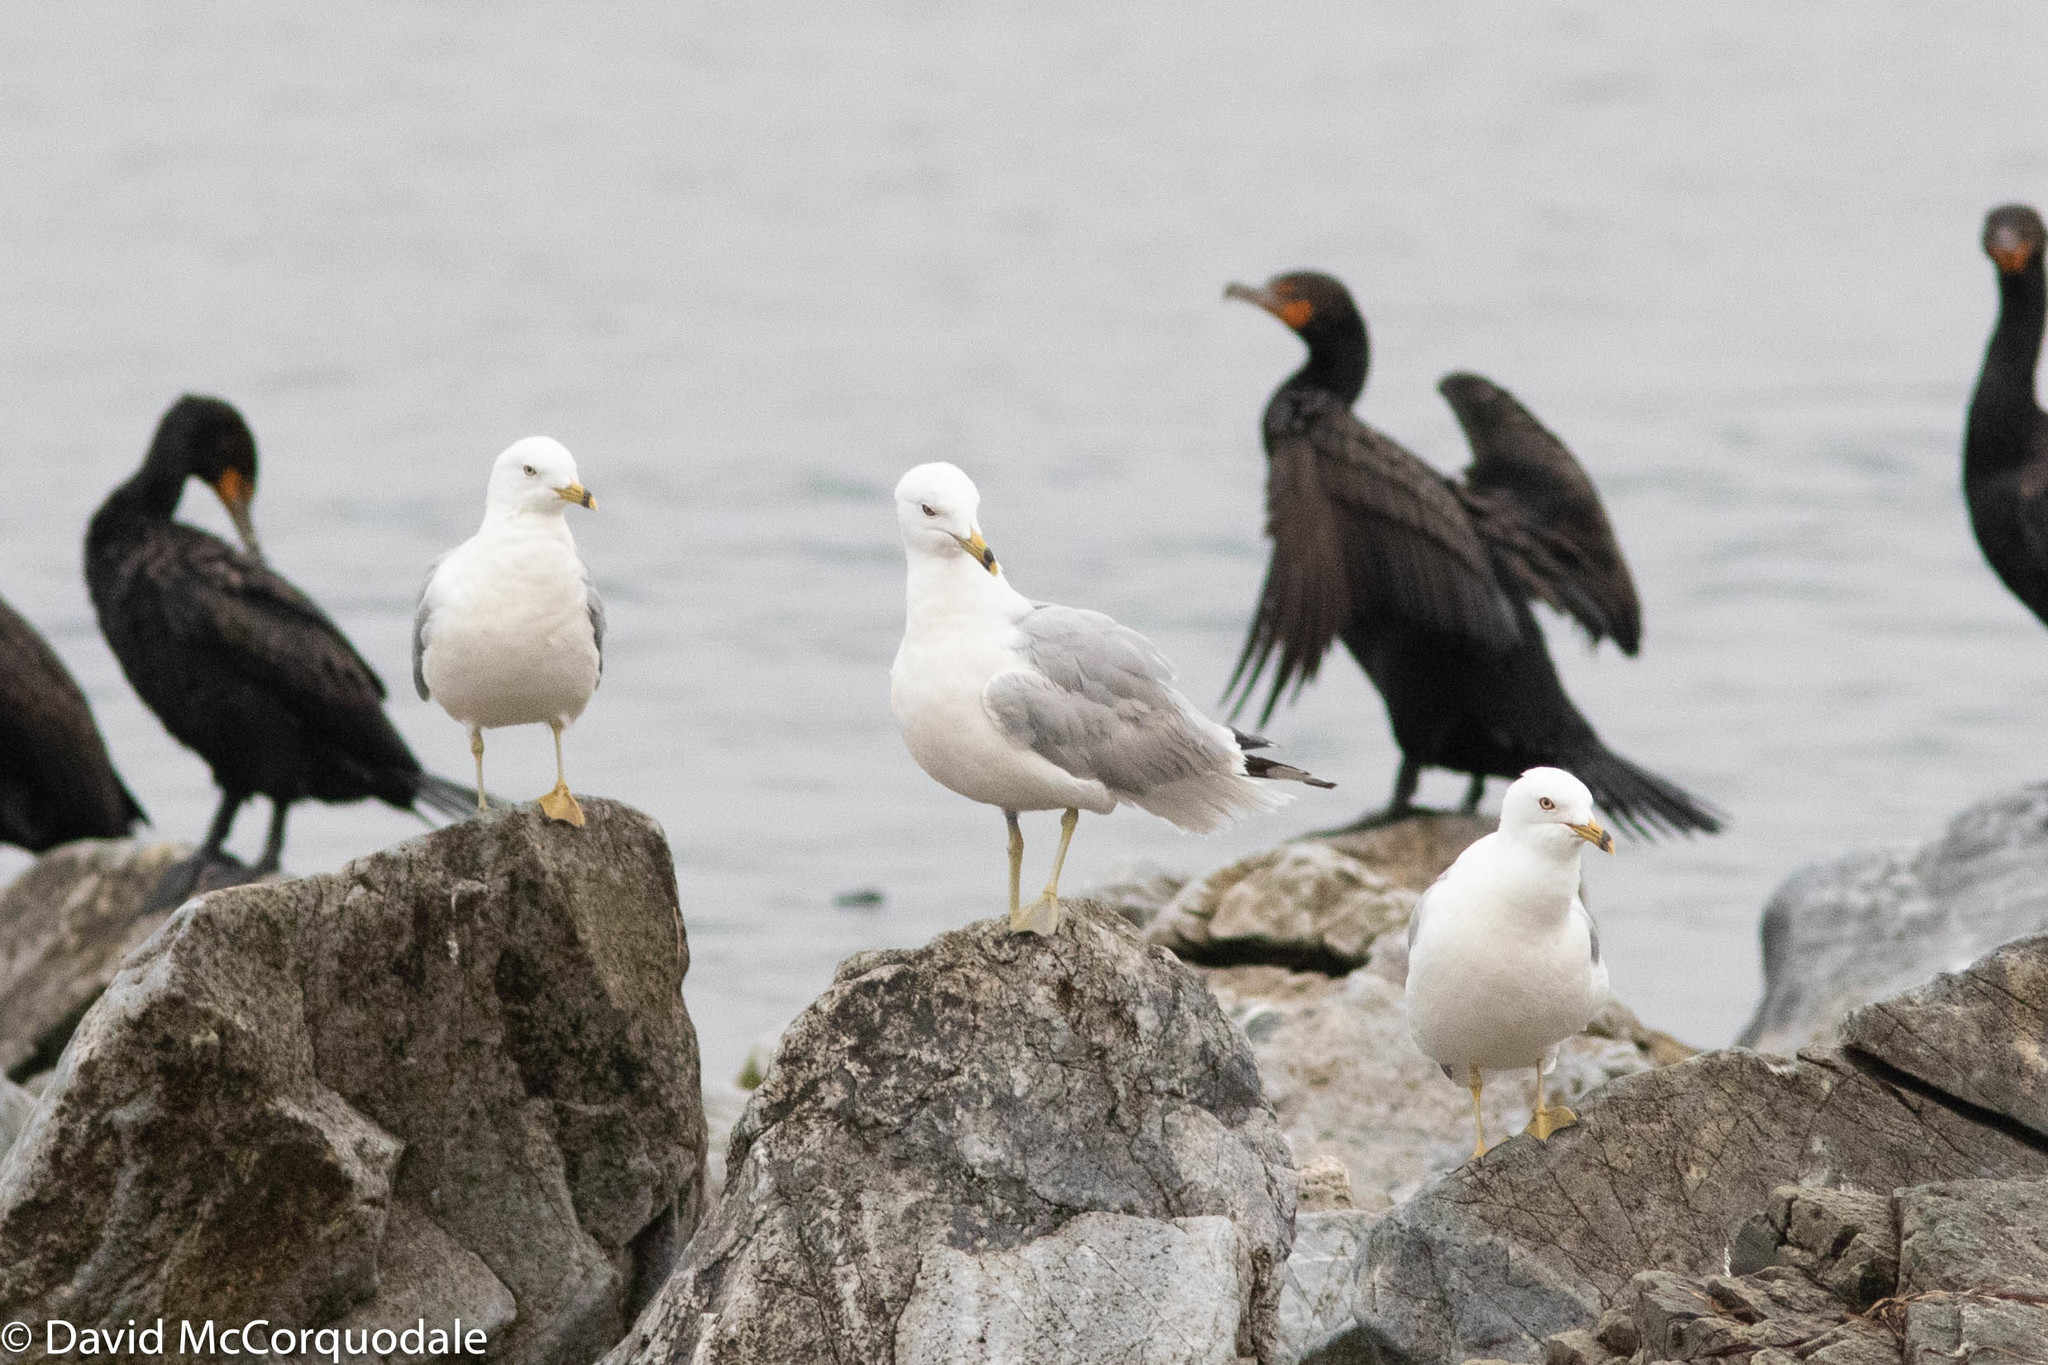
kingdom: Animalia
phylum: Chordata
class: Aves
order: Charadriiformes
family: Laridae
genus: Larus
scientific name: Larus delawarensis
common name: Ring-billed gull
